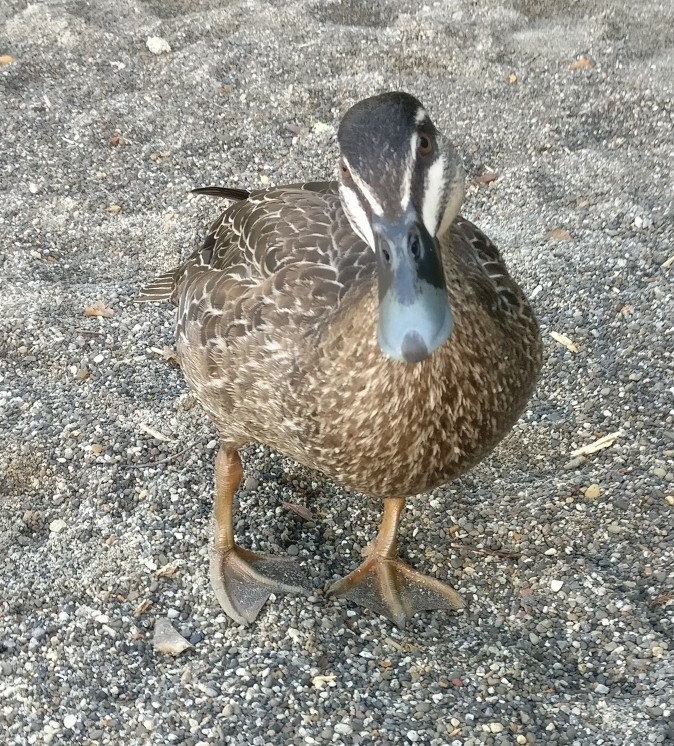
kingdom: Animalia
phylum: Chordata
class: Aves
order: Anseriformes
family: Anatidae
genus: Anas
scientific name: Anas superciliosa
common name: Pacific black duck
